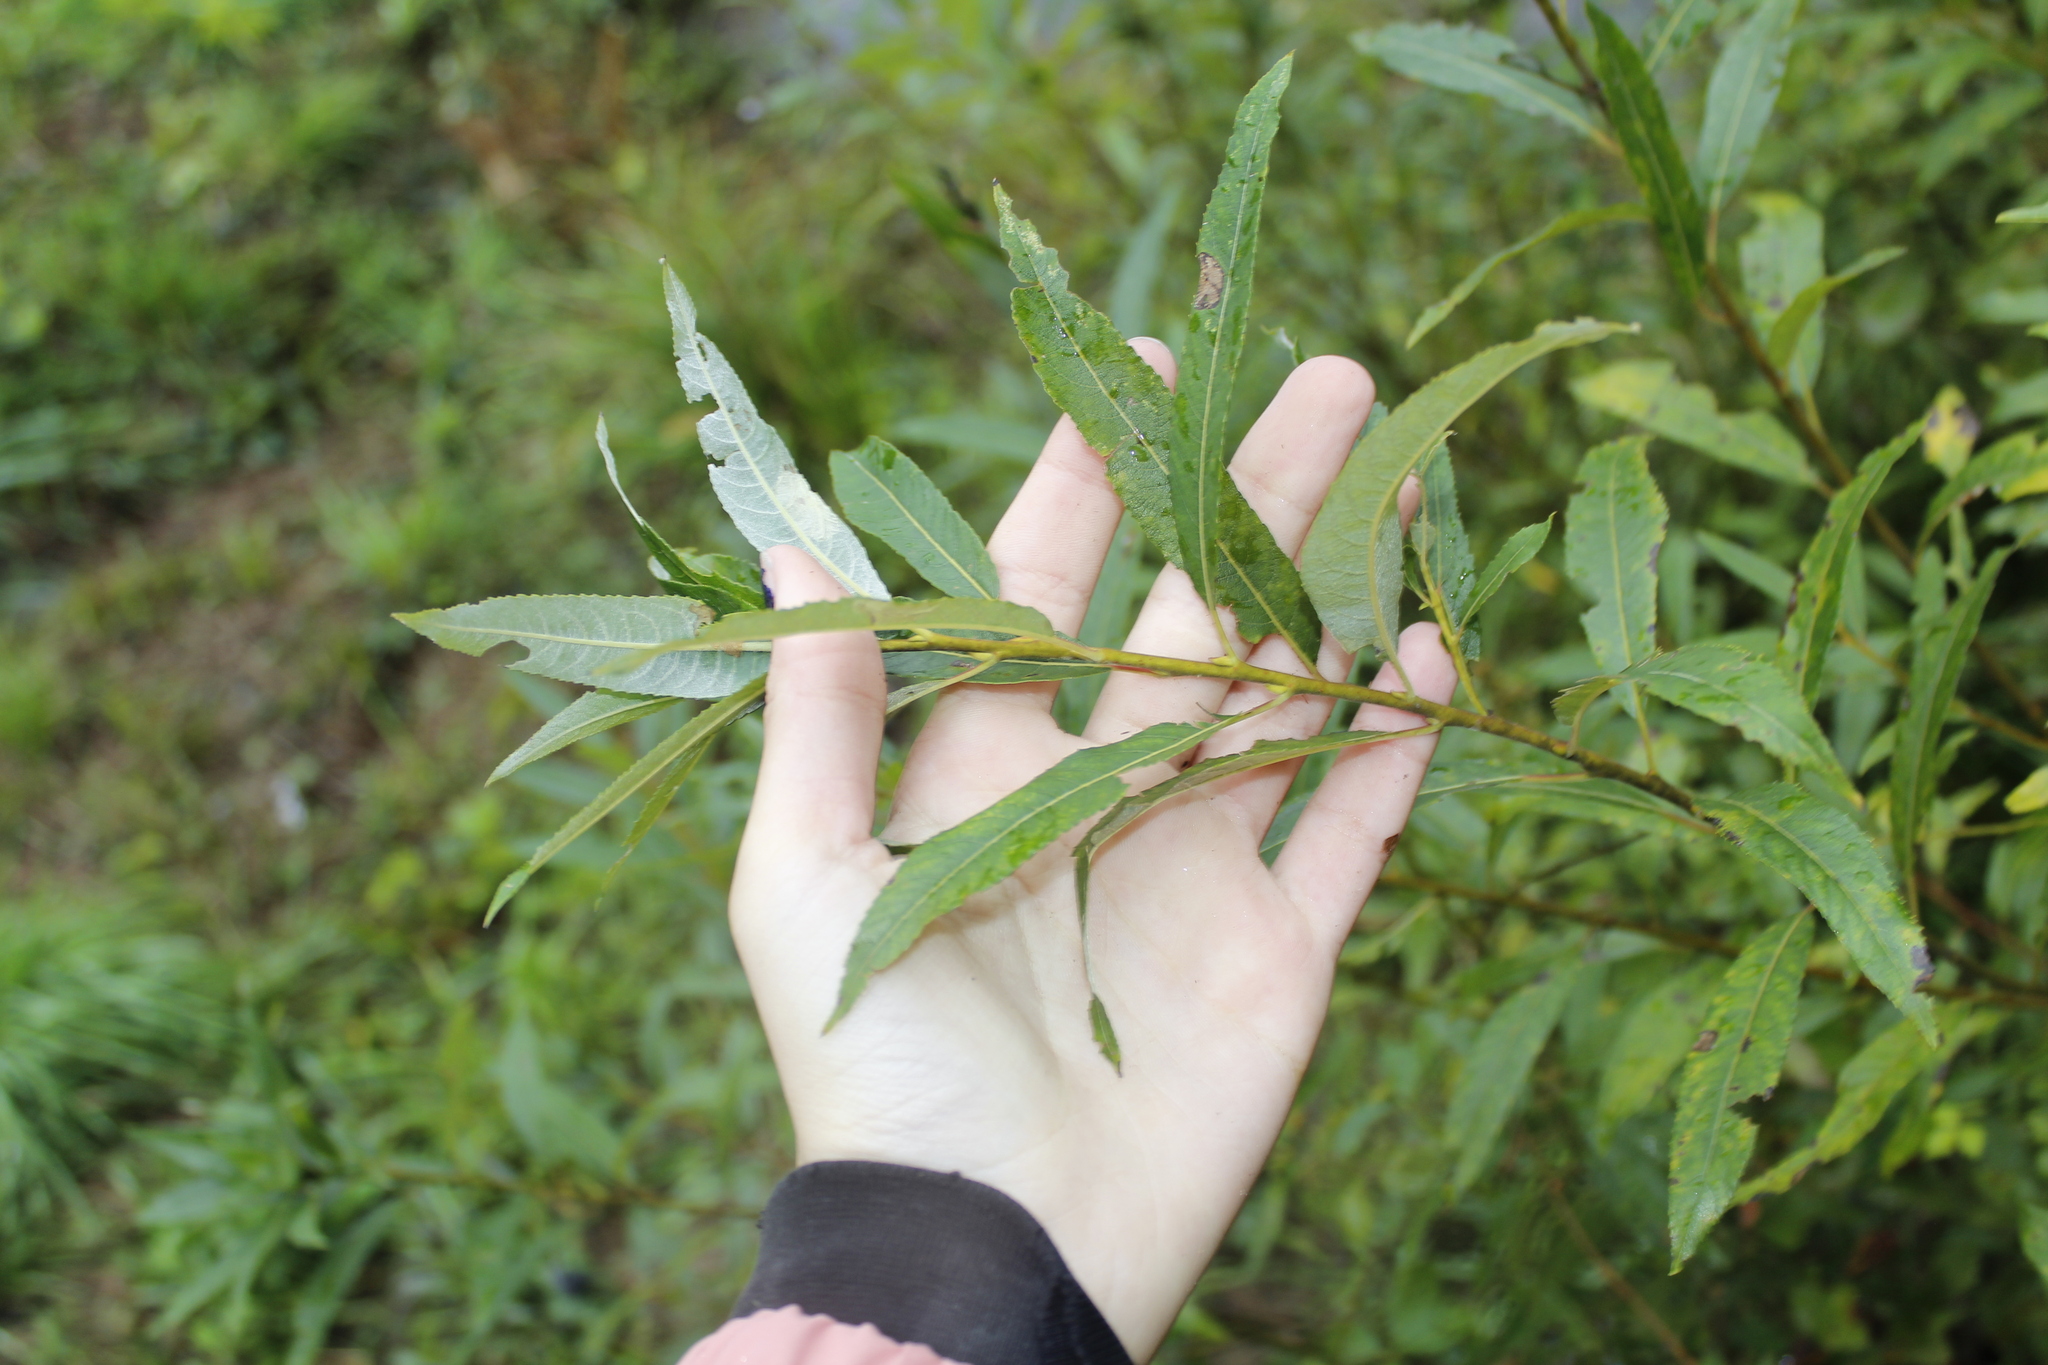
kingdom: Plantae
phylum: Tracheophyta
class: Magnoliopsida
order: Malpighiales
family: Salicaceae
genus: Salix
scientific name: Salix sericea
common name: Silky willow
